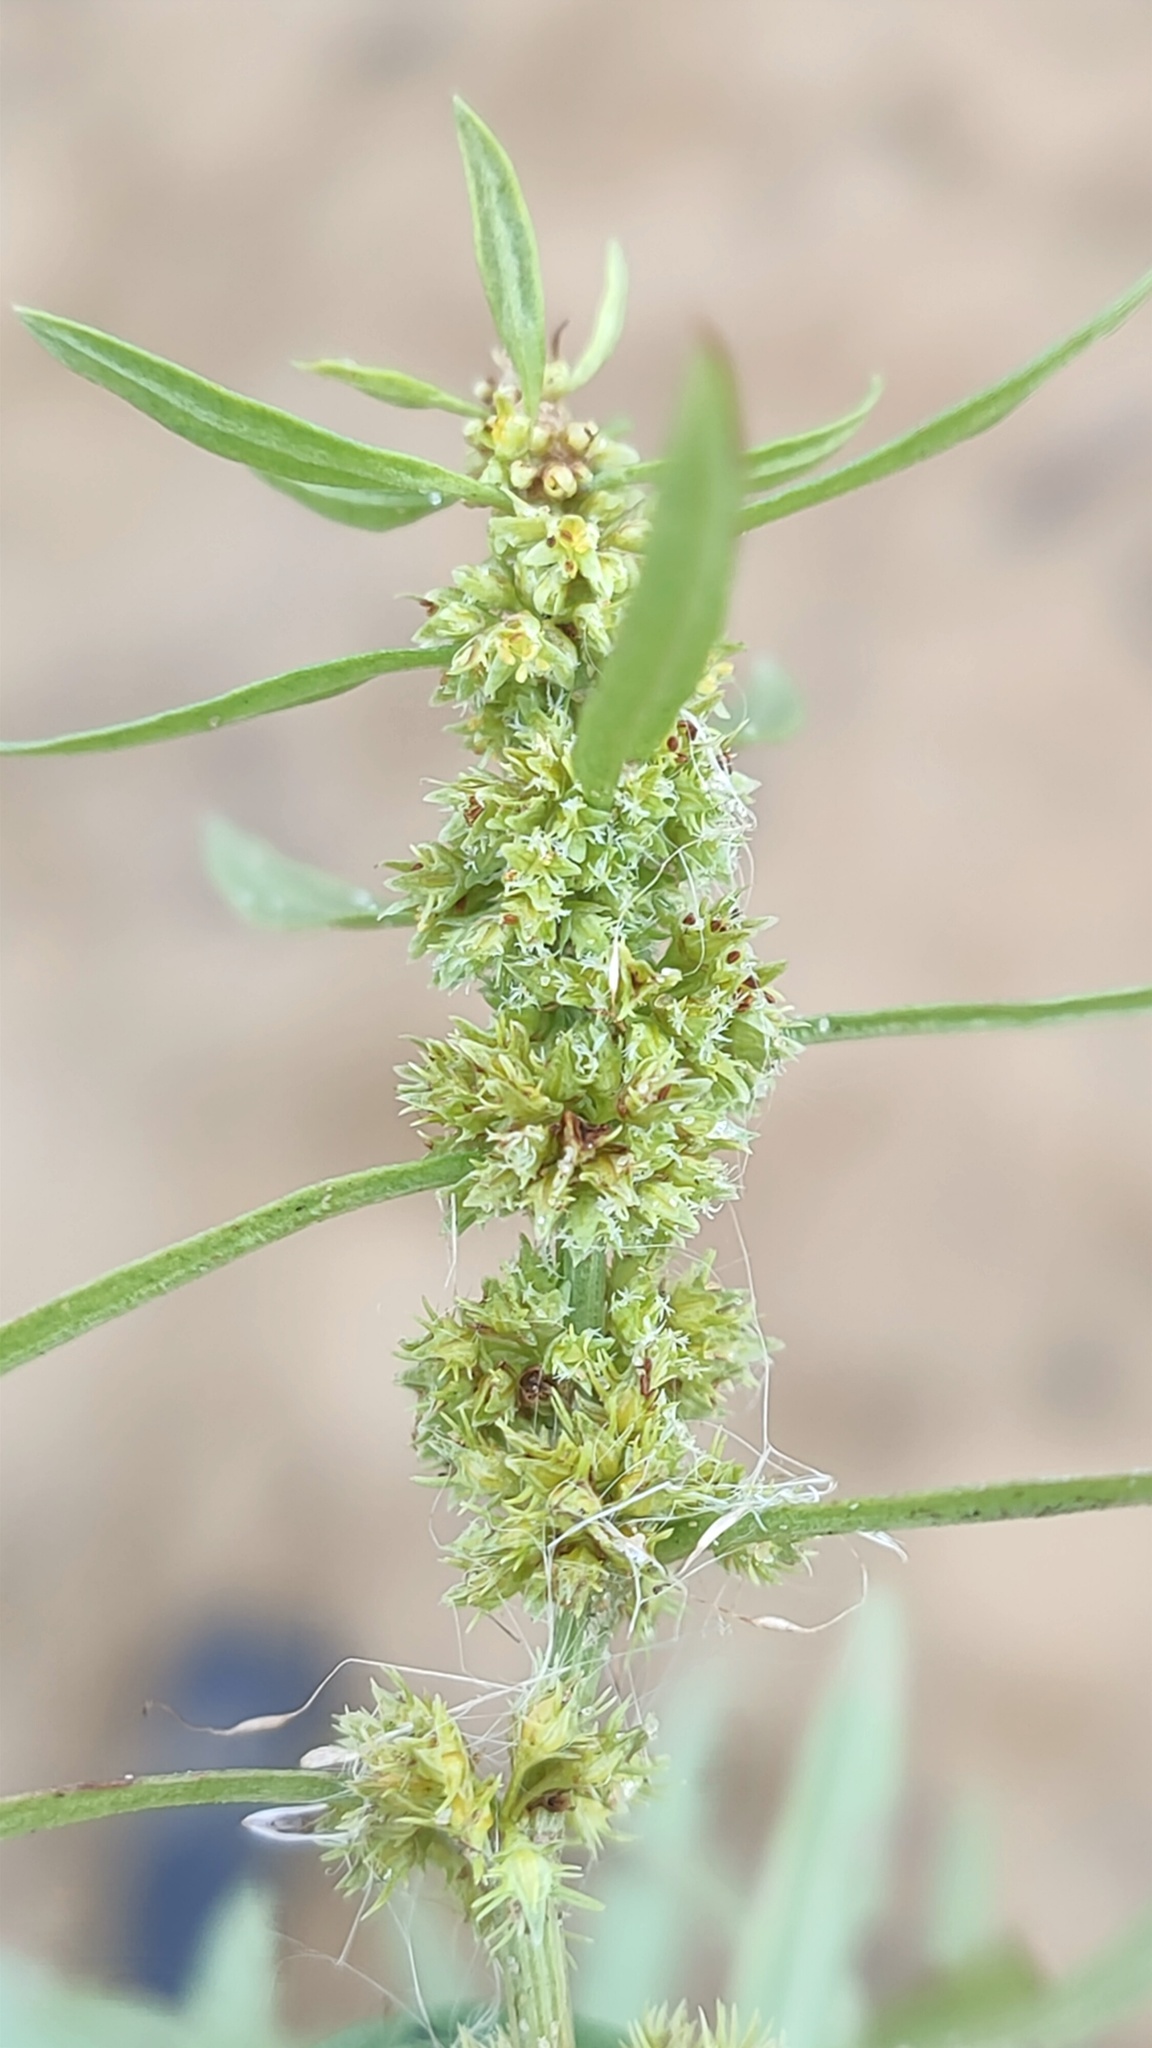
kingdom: Plantae
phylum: Tracheophyta
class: Magnoliopsida
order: Caryophyllales
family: Polygonaceae
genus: Rumex
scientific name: Rumex maritimus
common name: Golden dock
